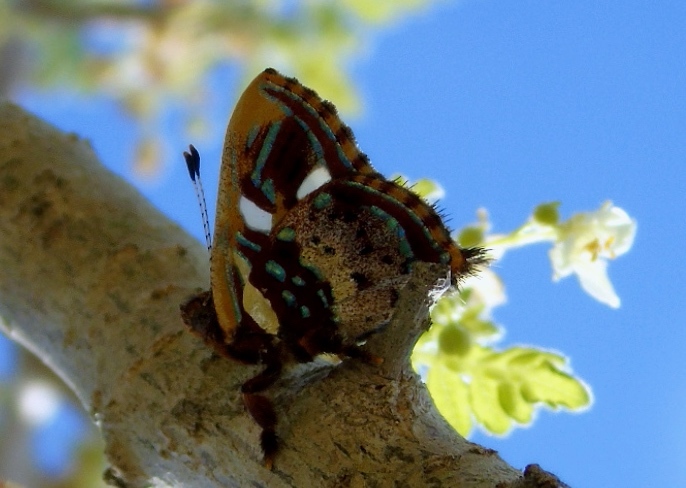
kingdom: Animalia
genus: Anteros
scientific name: Anteros carausius
